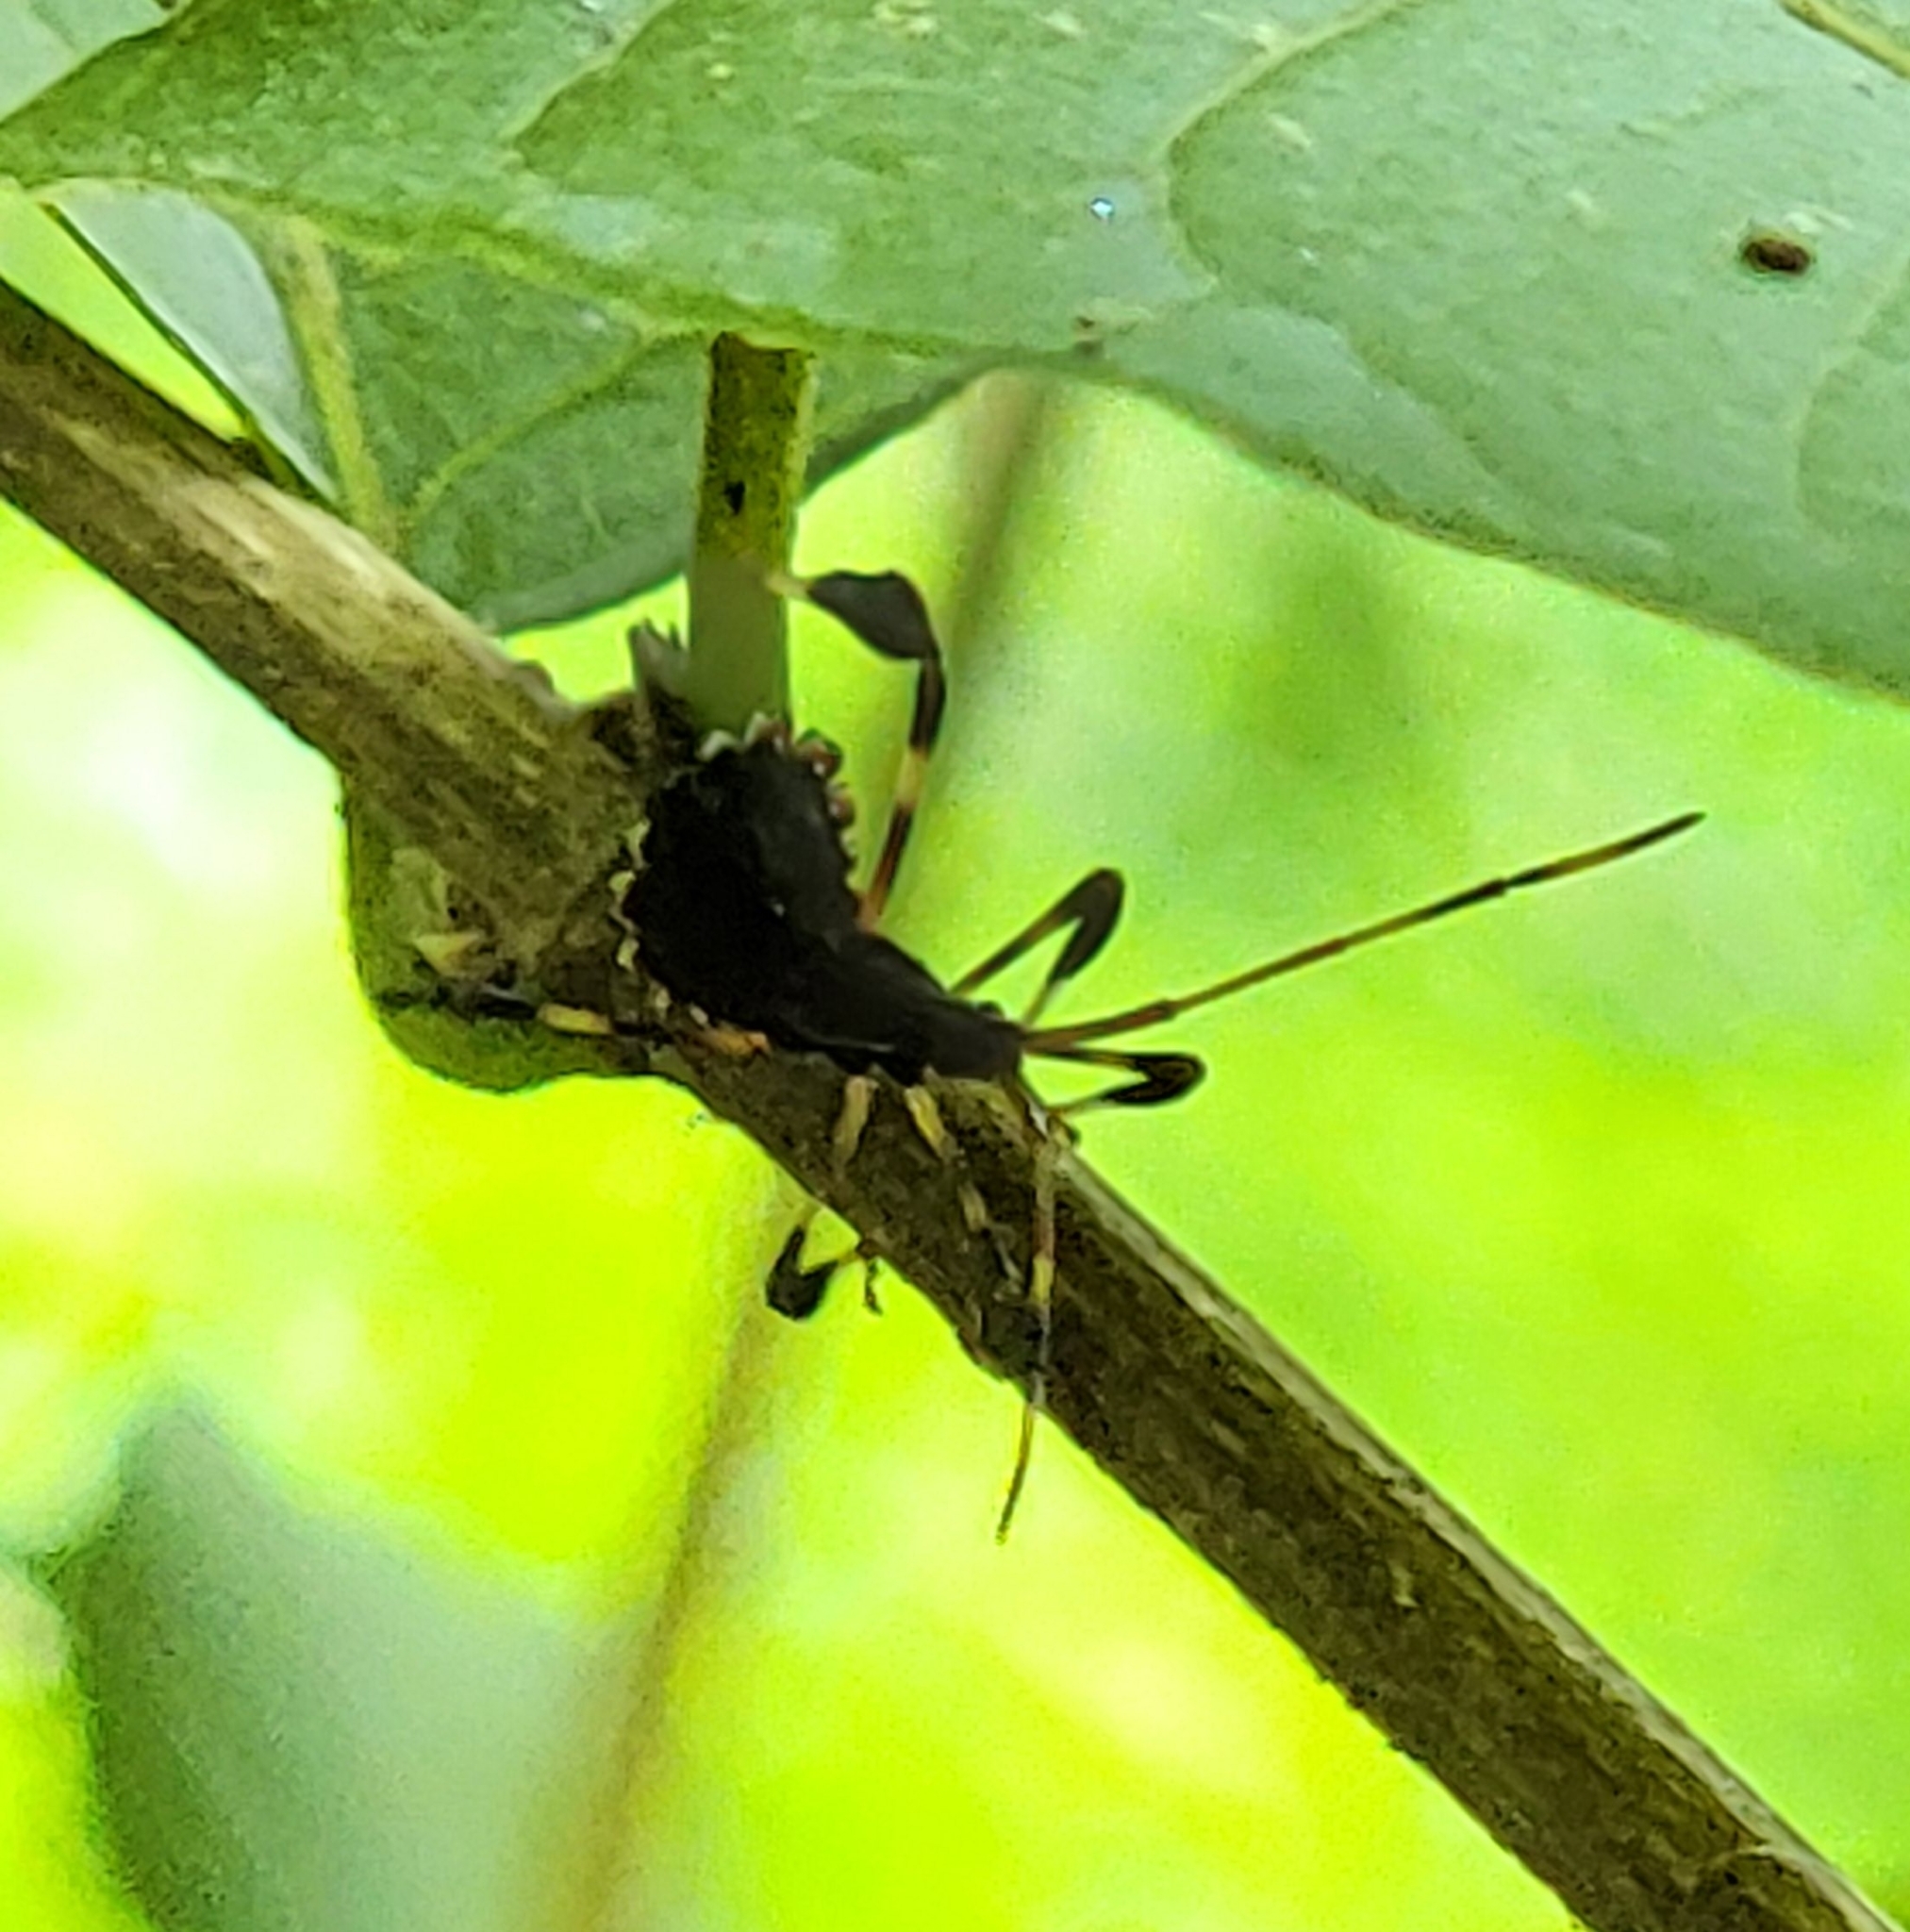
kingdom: Animalia
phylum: Arthropoda
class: Insecta
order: Hemiptera
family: Coreidae
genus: Acanthocephala
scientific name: Acanthocephala terminalis
